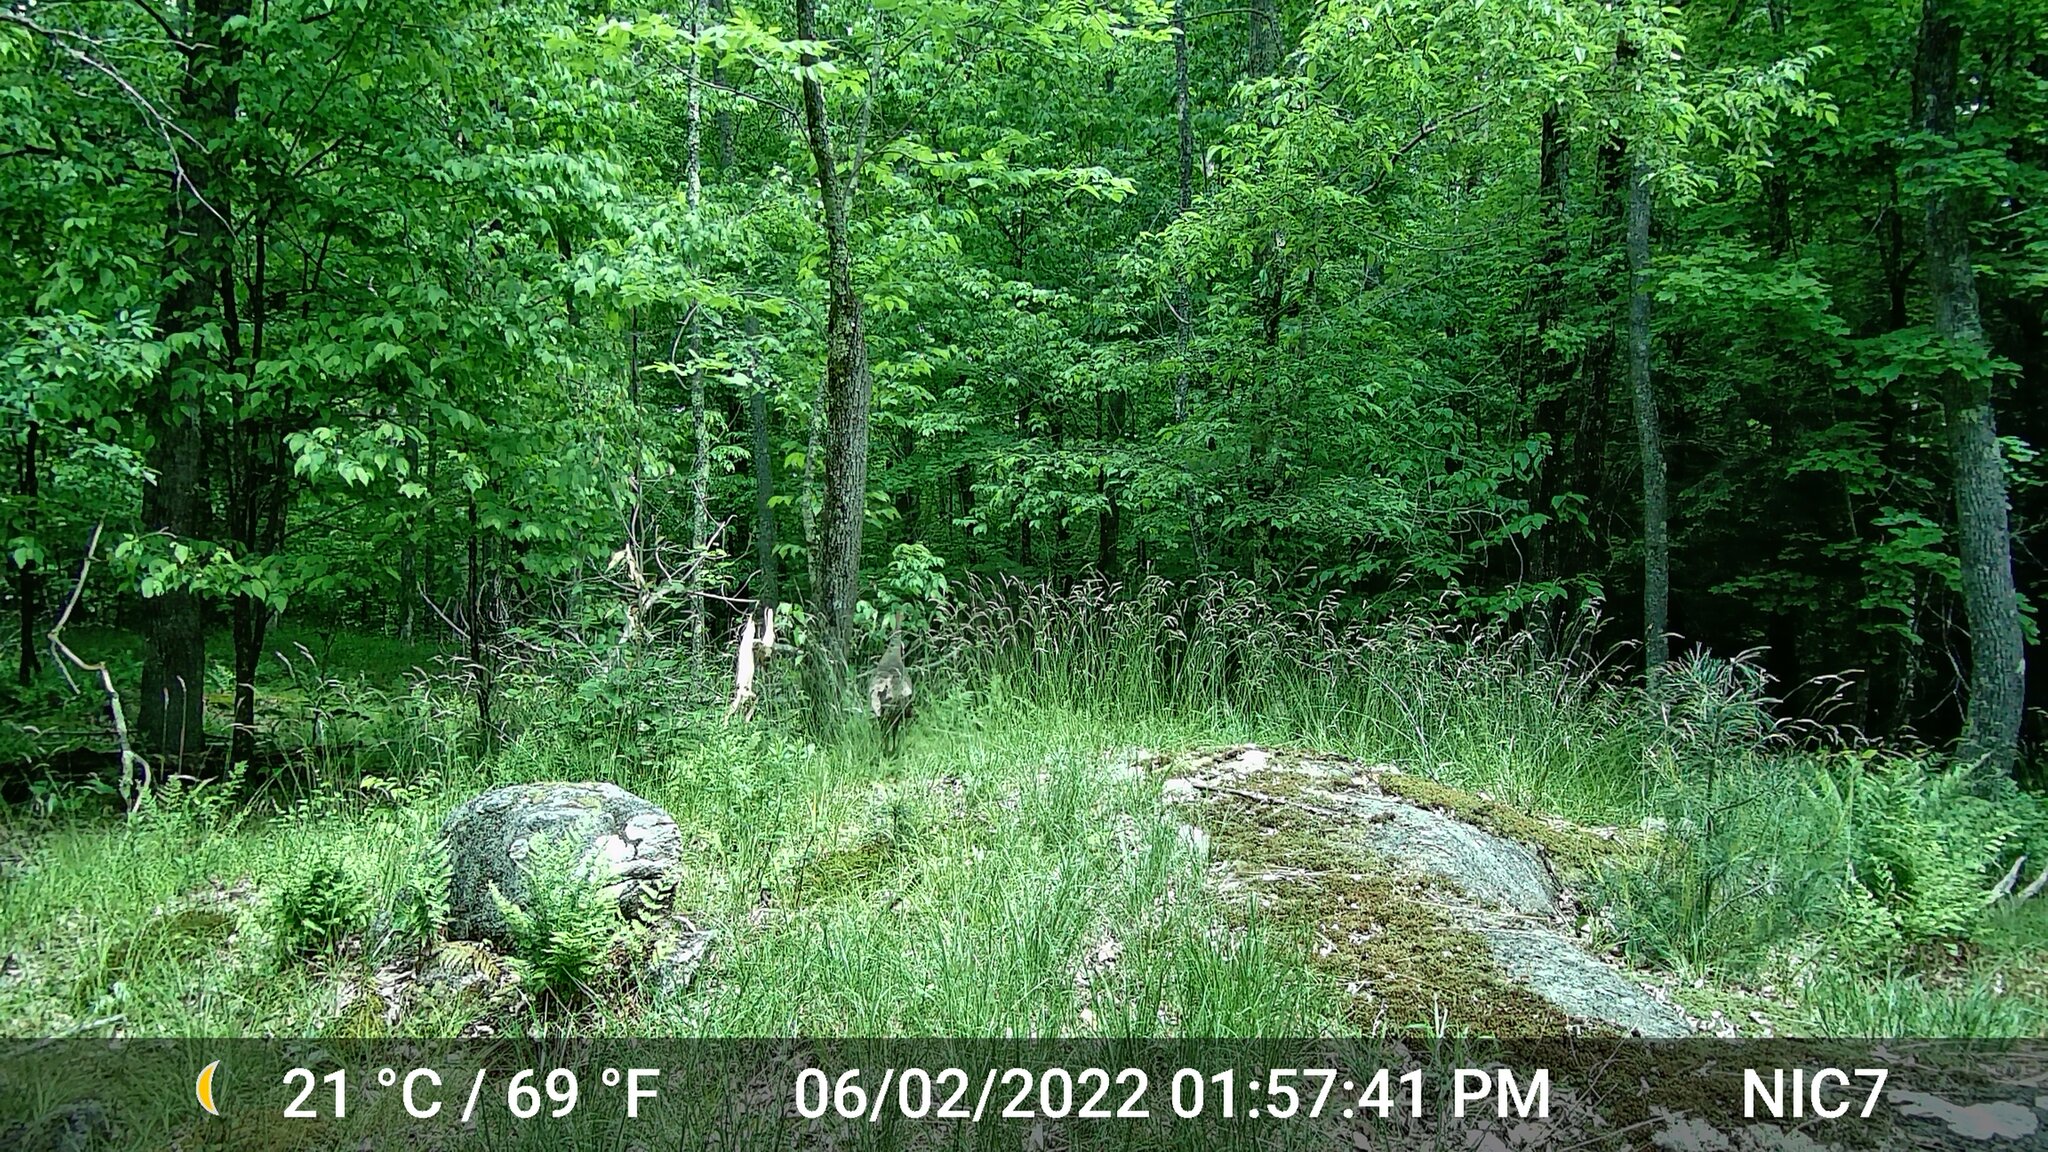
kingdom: Animalia
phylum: Chordata
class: Aves
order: Galliformes
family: Phasianidae
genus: Meleagris
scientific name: Meleagris gallopavo
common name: Wild turkey
